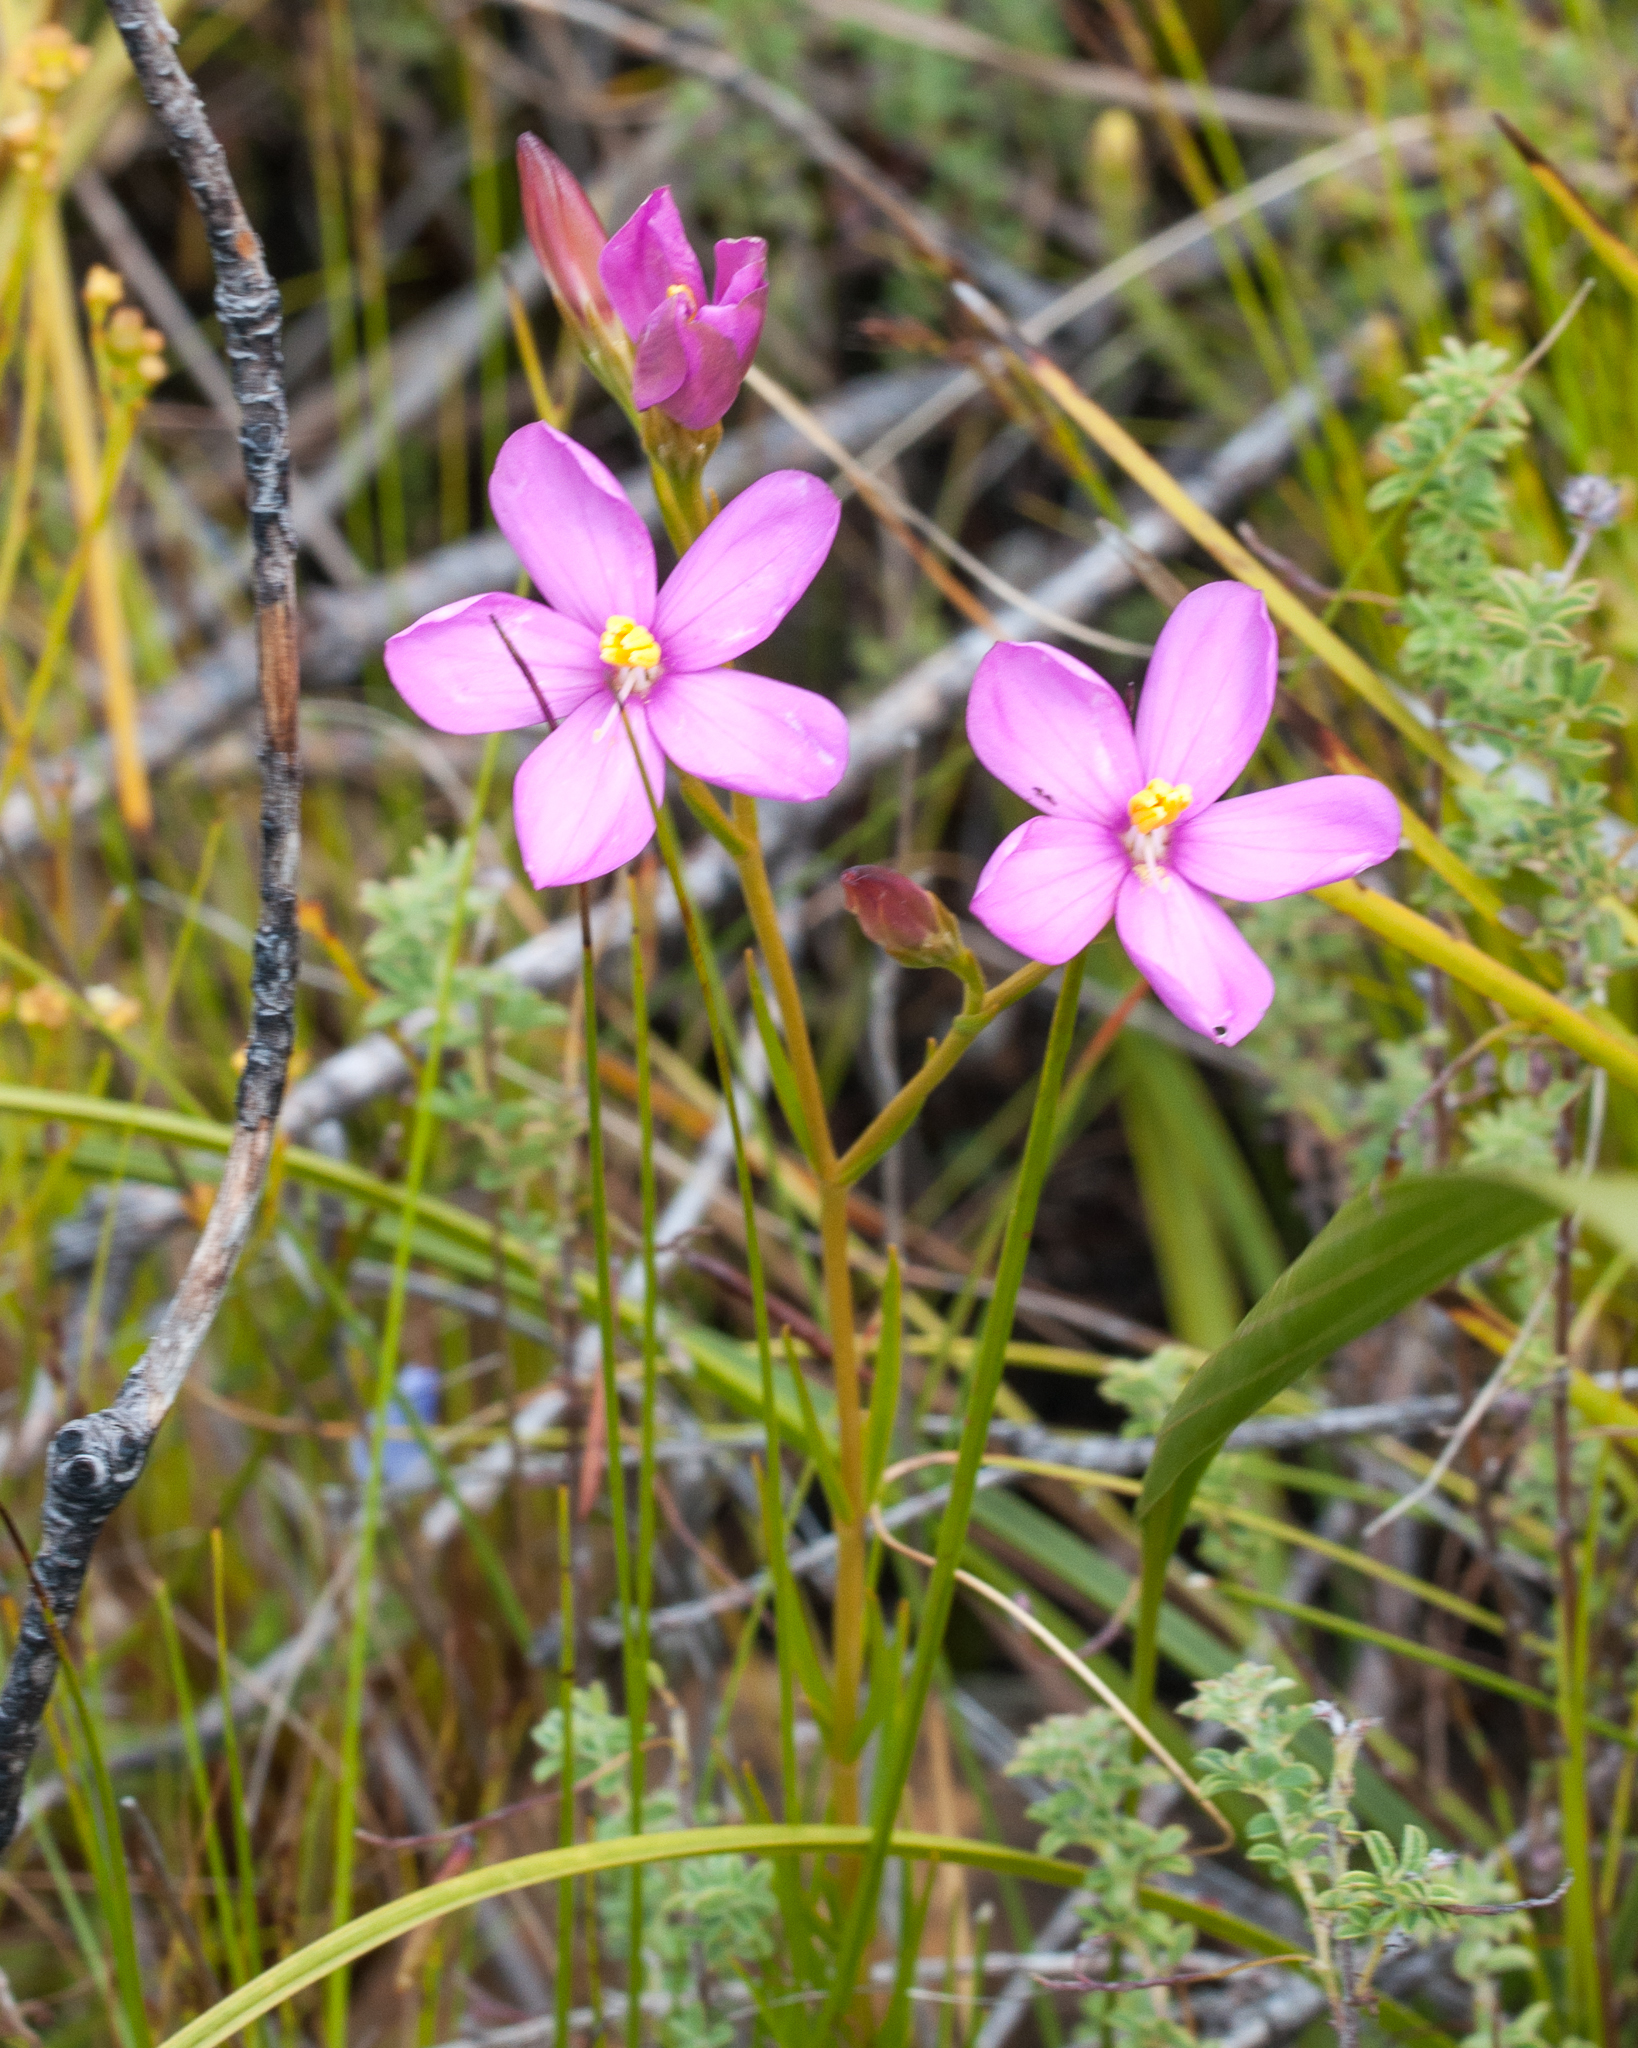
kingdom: Plantae
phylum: Tracheophyta
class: Magnoliopsida
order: Gentianales
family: Gentianaceae
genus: Chironia
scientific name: Chironia tetragona
